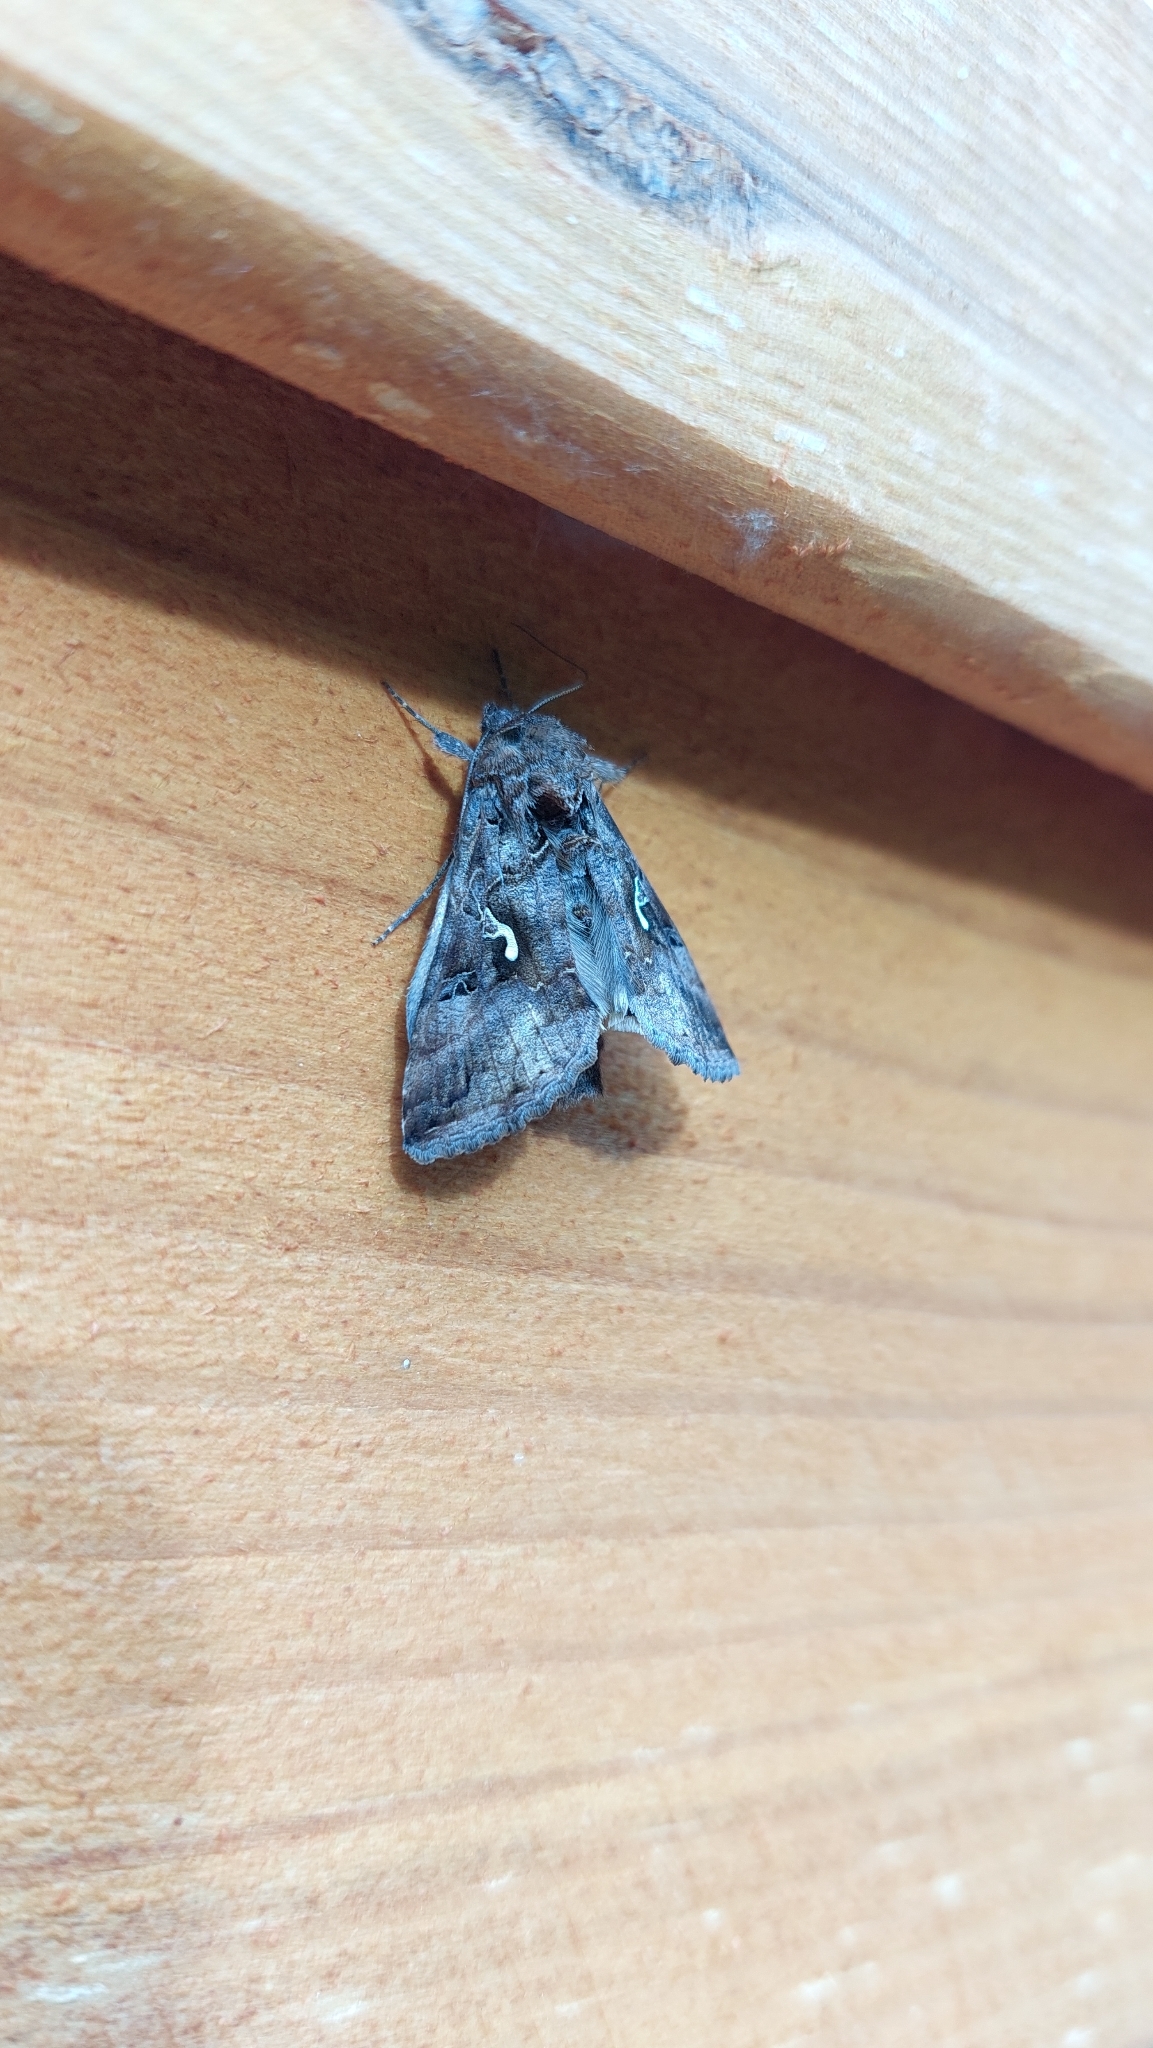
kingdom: Animalia
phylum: Arthropoda
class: Insecta
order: Lepidoptera
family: Noctuidae
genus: Autographa
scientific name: Autographa gamma
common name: Silver y
